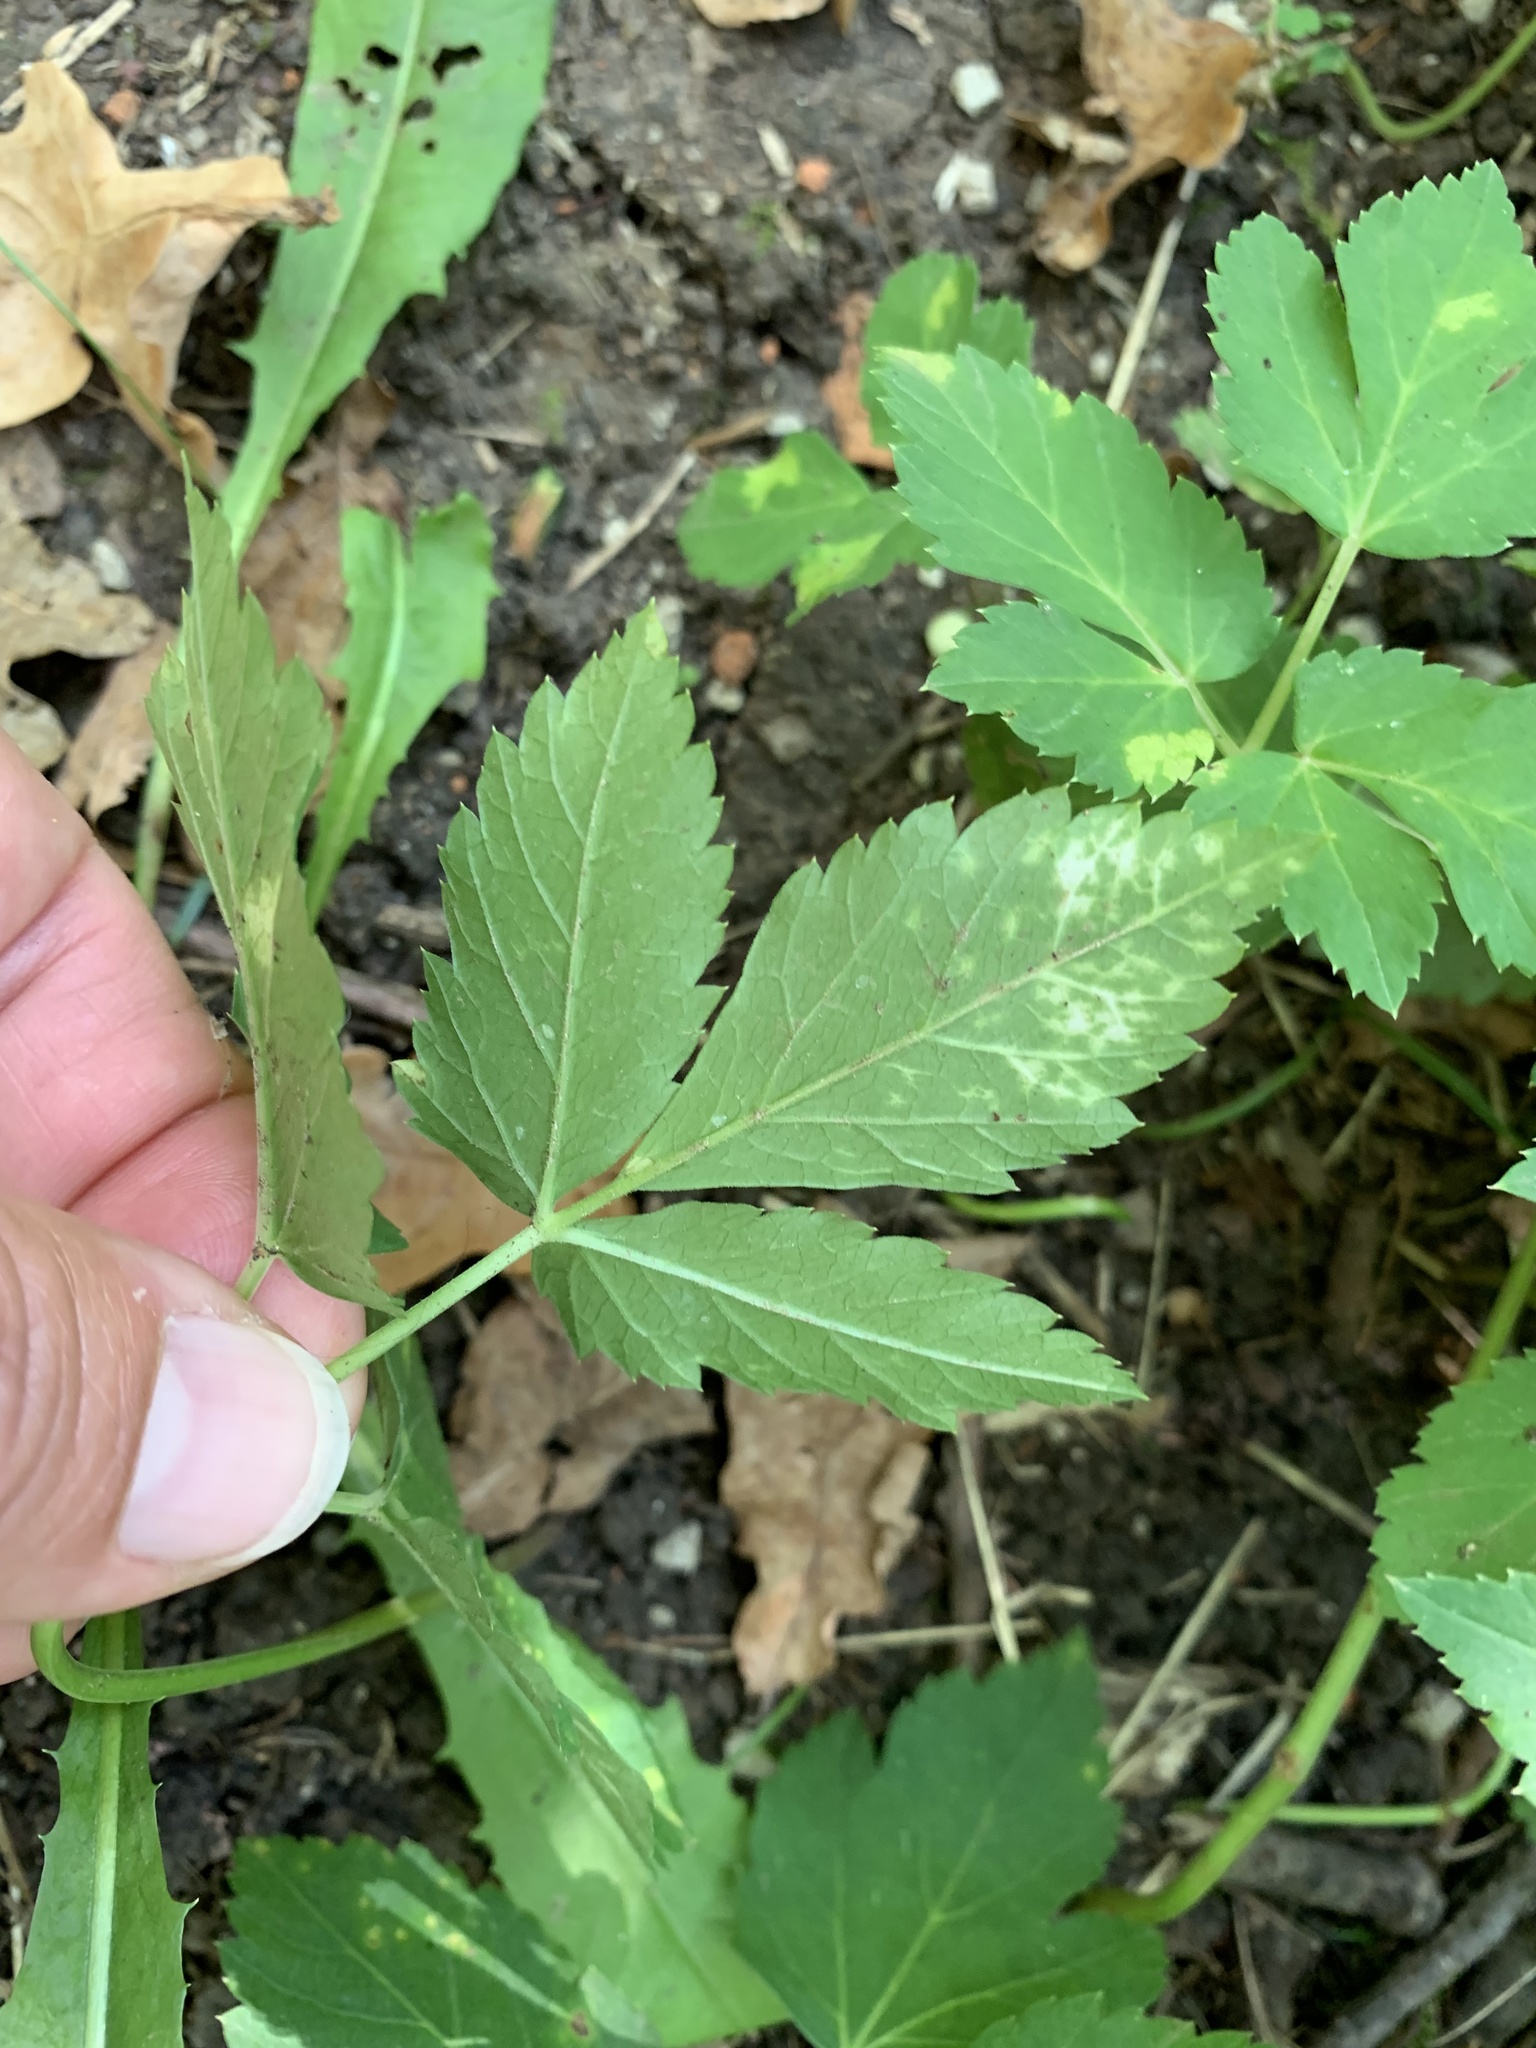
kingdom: Plantae
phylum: Tracheophyta
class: Magnoliopsida
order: Apiales
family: Apiaceae
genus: Aegopodium
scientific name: Aegopodium podagraria
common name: Ground-elder
